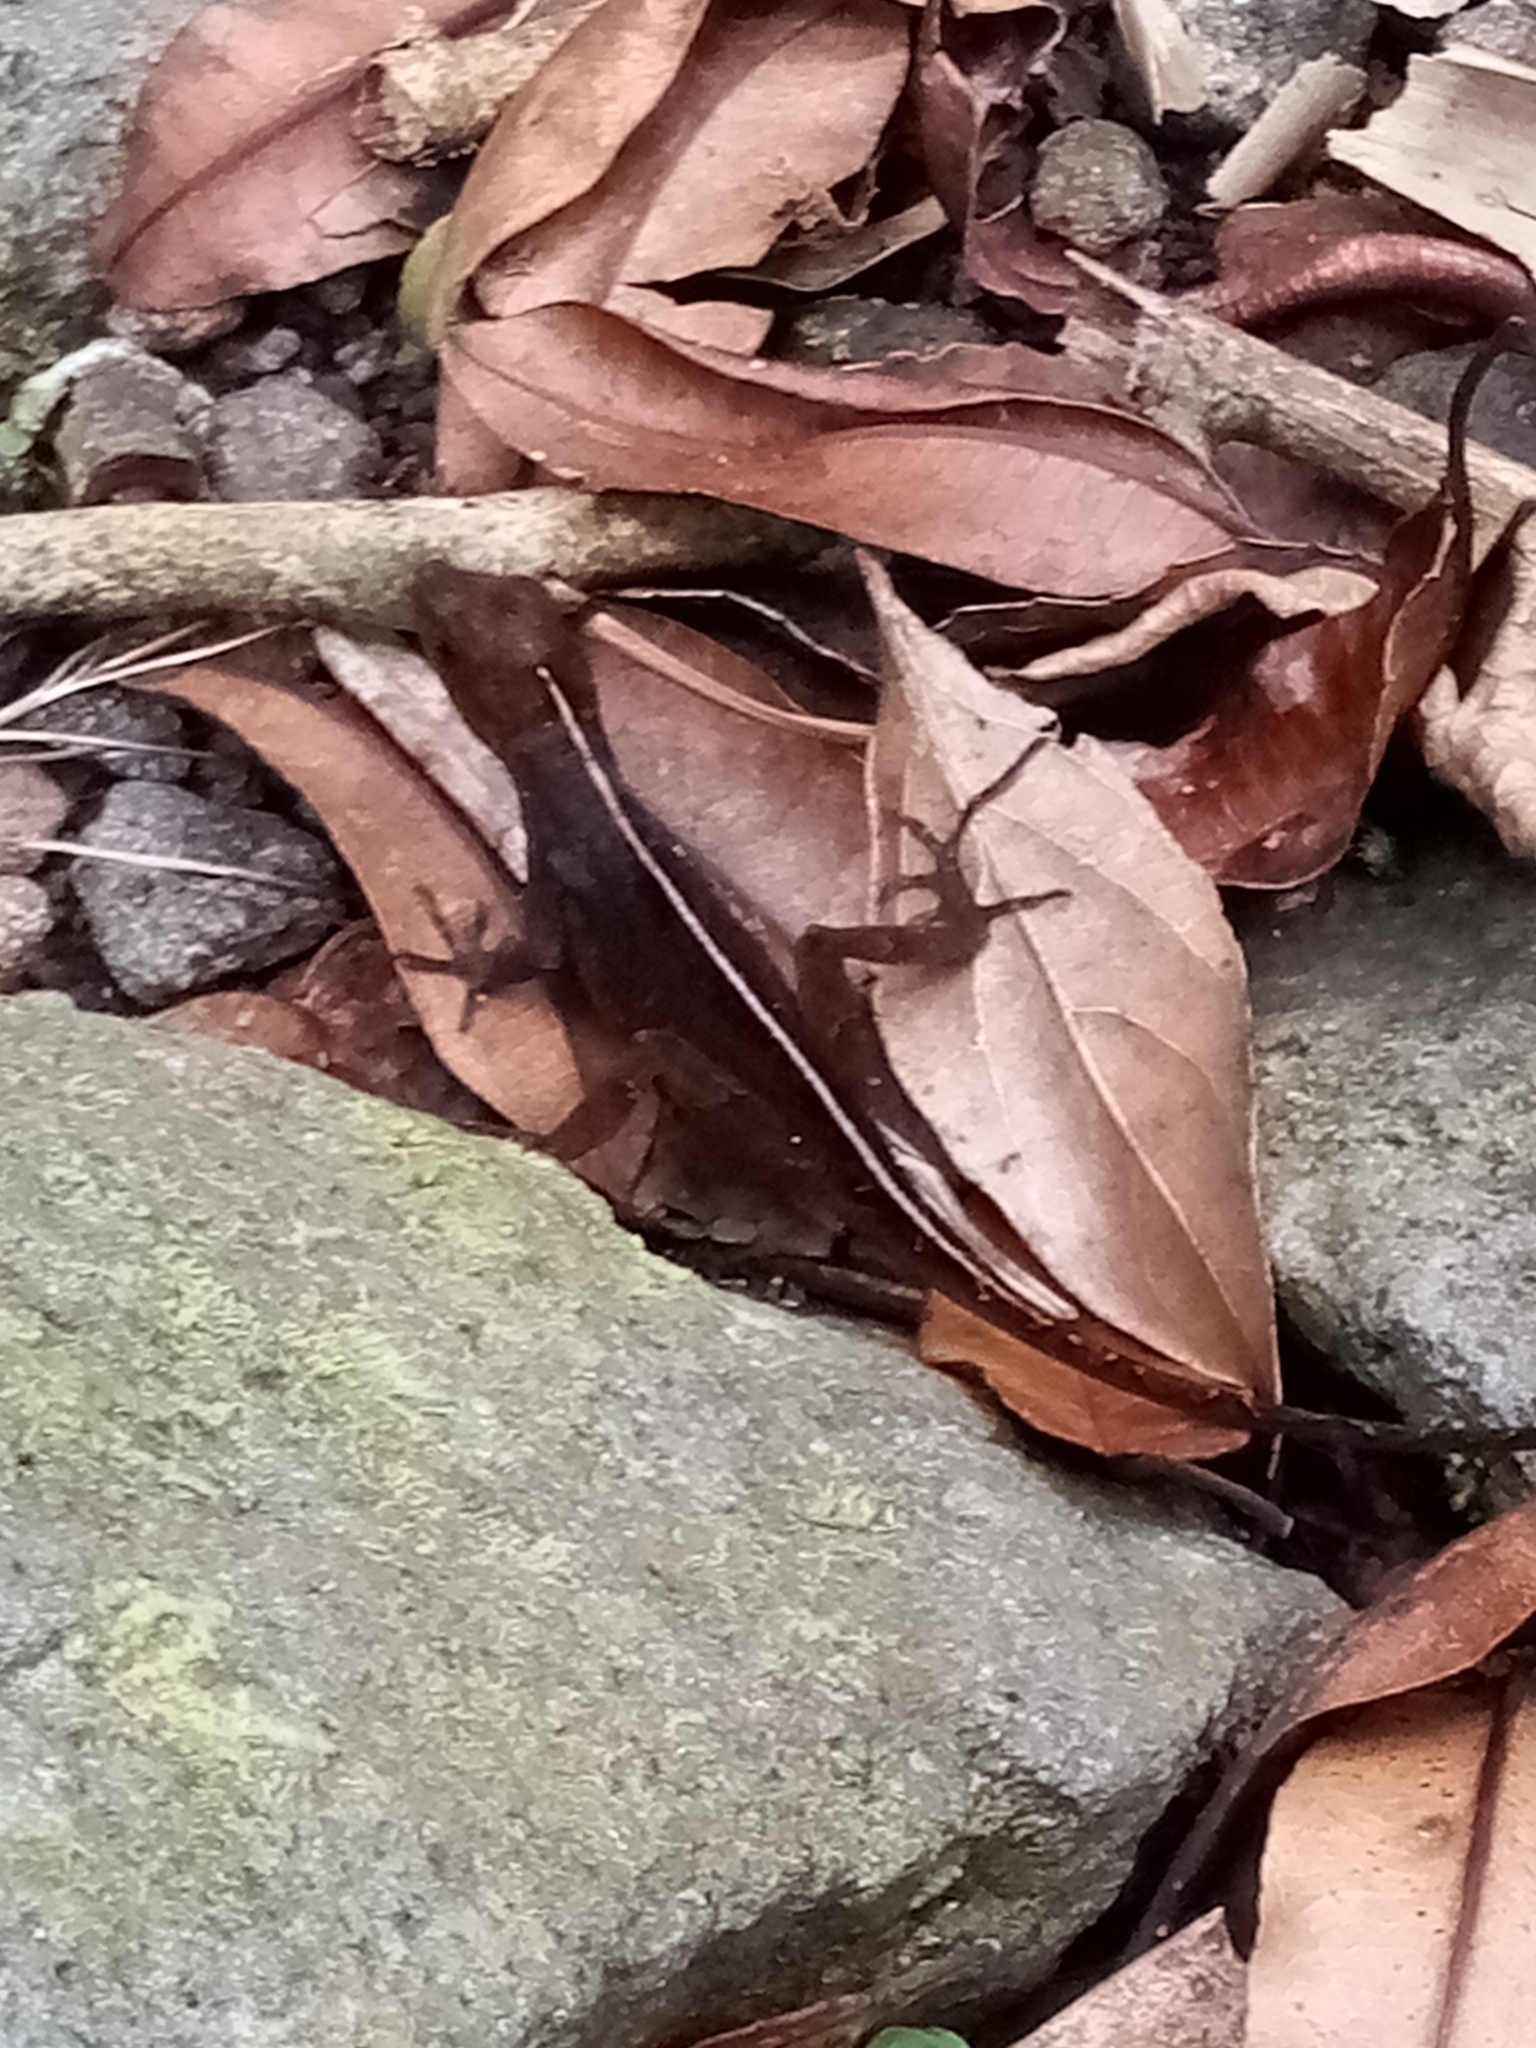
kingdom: Animalia
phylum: Chordata
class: Squamata
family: Dactyloidae
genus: Anolis
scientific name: Anolis humilis
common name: Humble anole
